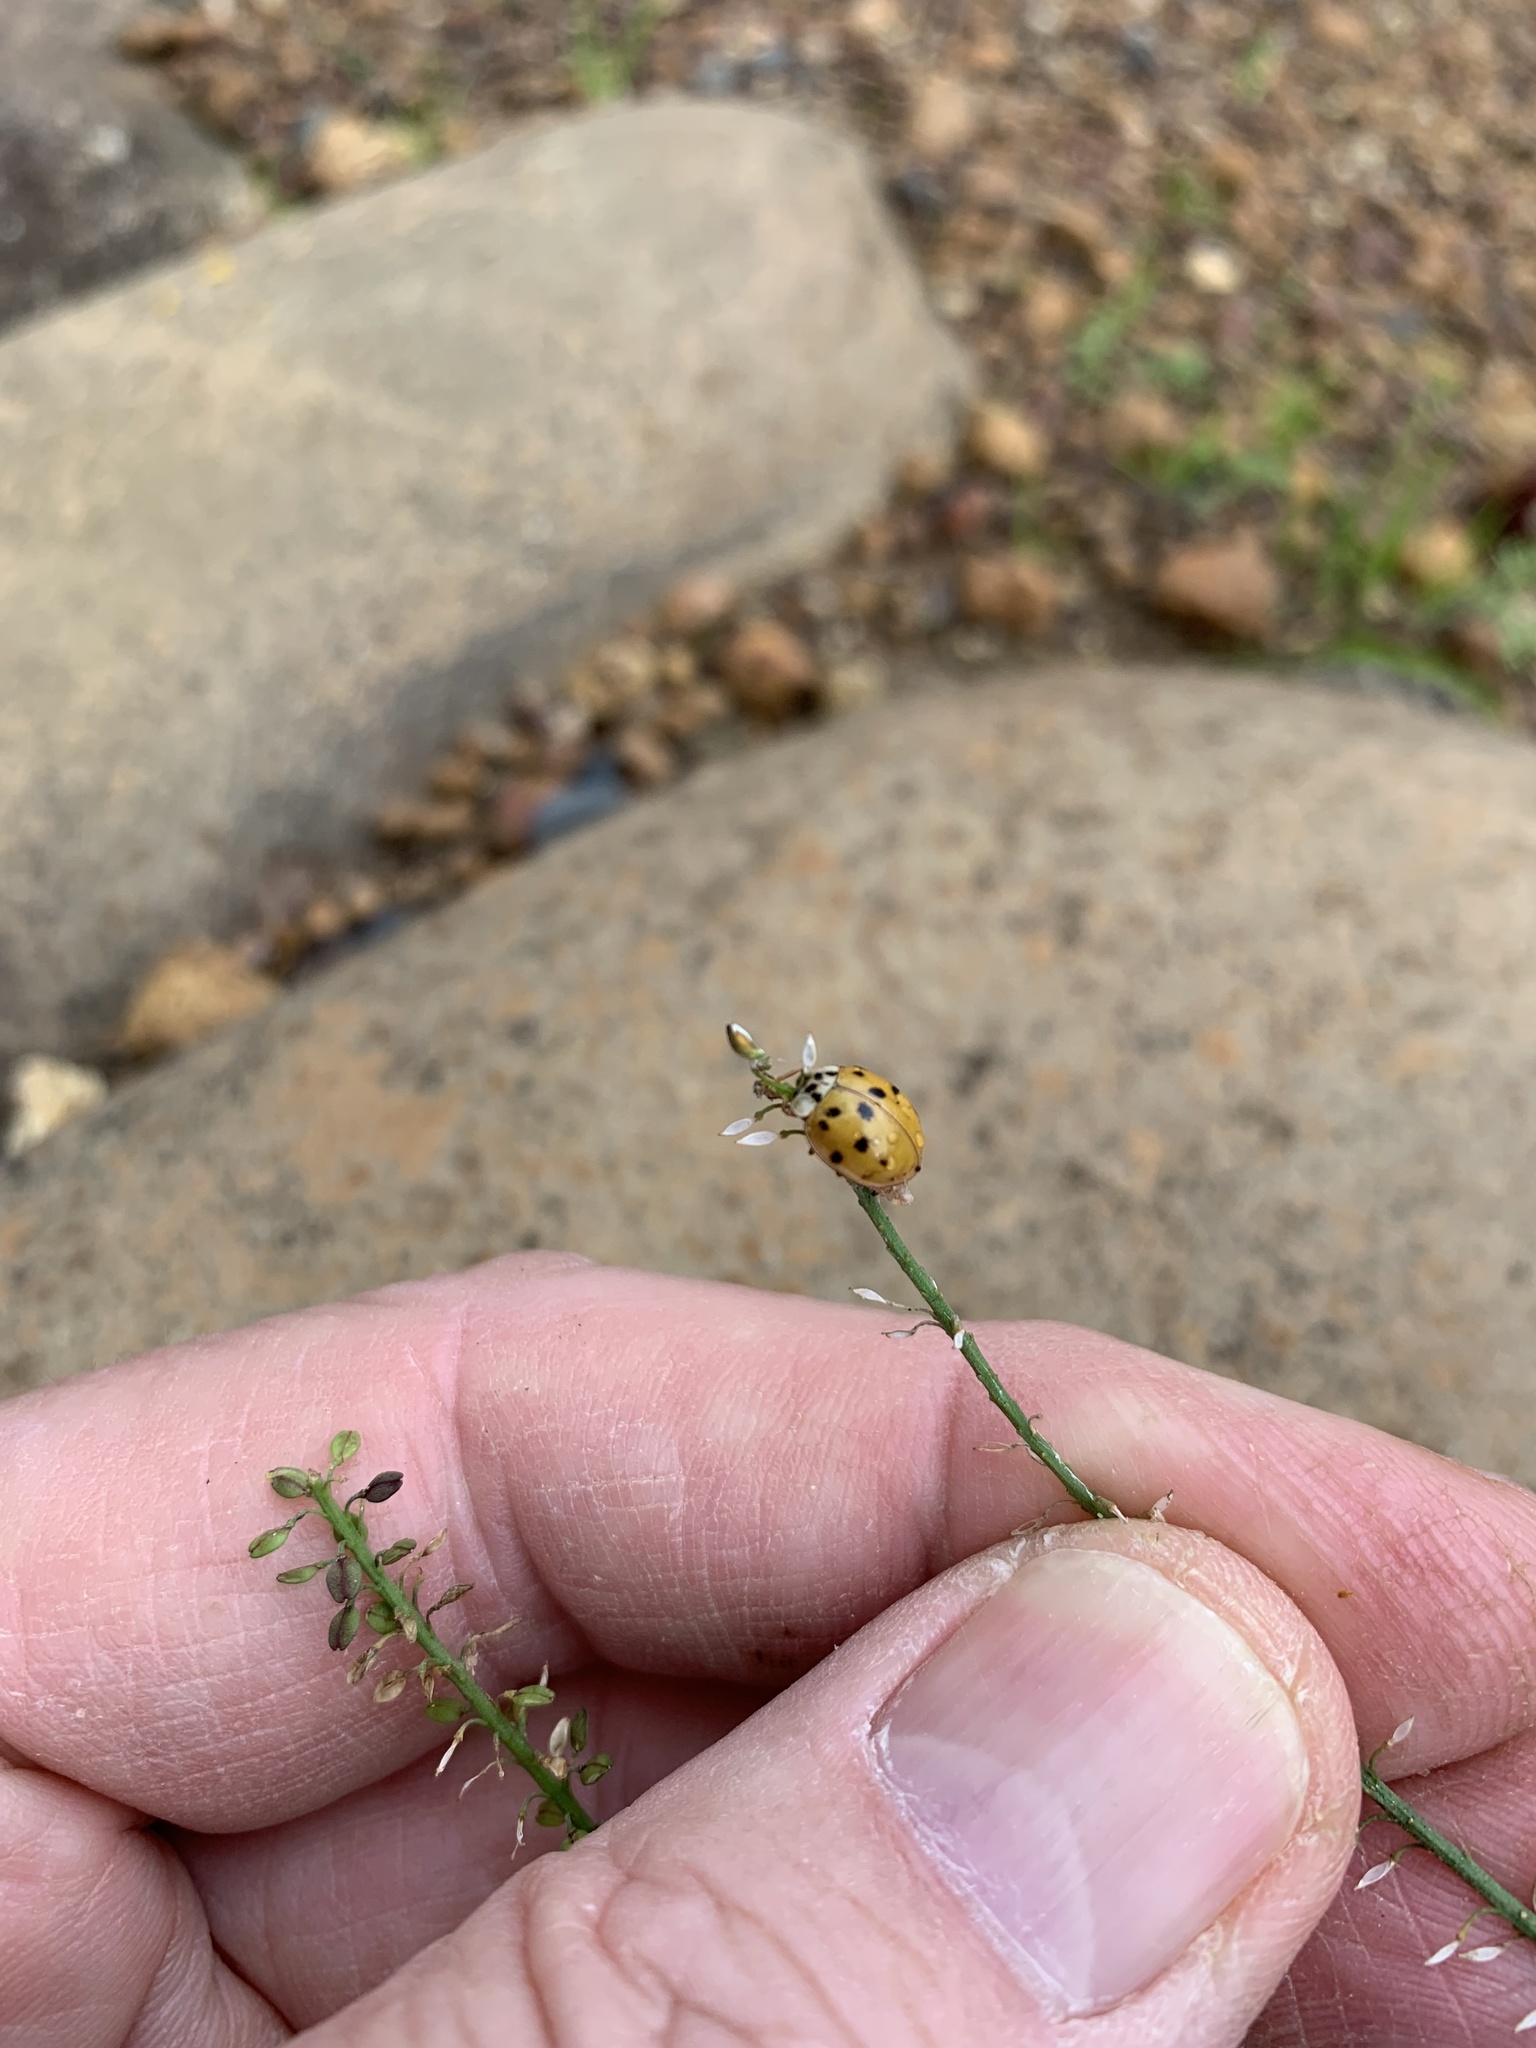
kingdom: Animalia
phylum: Arthropoda
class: Insecta
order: Coleoptera
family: Coccinellidae
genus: Harmonia
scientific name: Harmonia axyridis
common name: Harlequin ladybird
